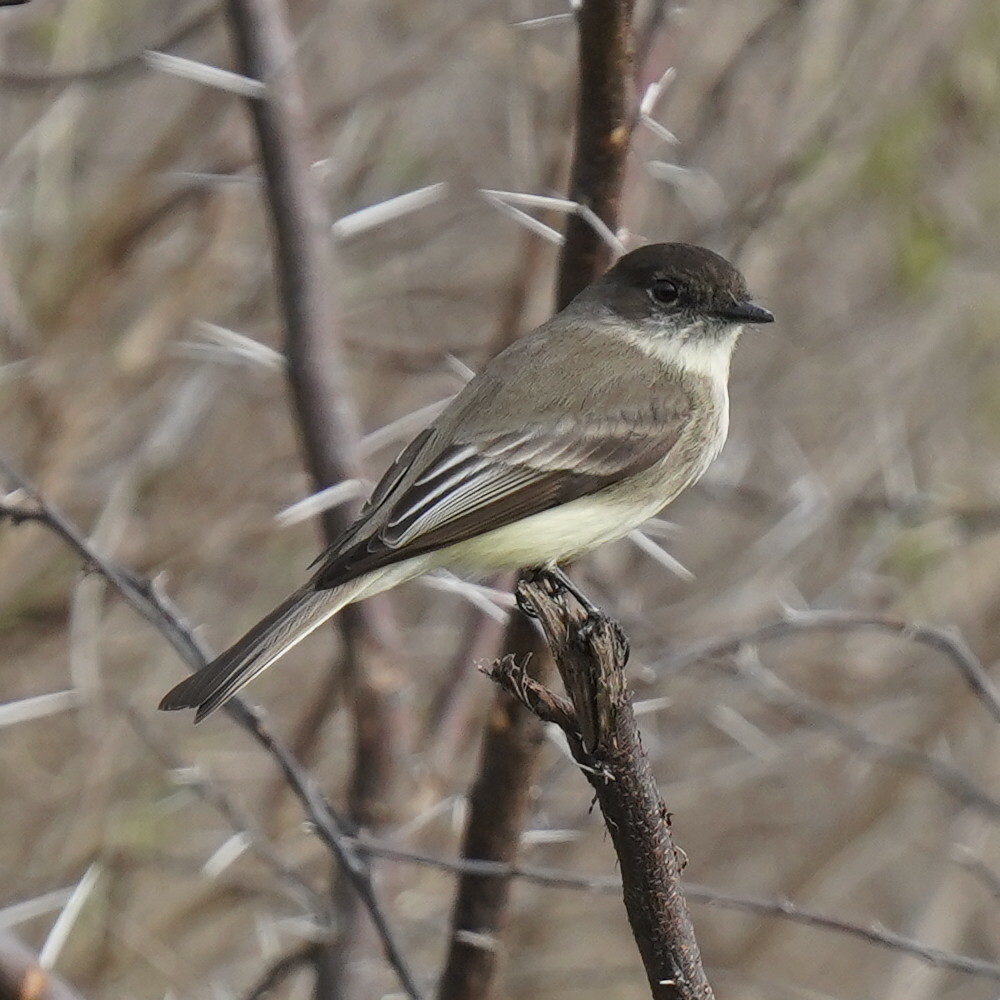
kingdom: Animalia
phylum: Chordata
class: Aves
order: Passeriformes
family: Tyrannidae
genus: Sayornis
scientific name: Sayornis phoebe
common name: Eastern phoebe
